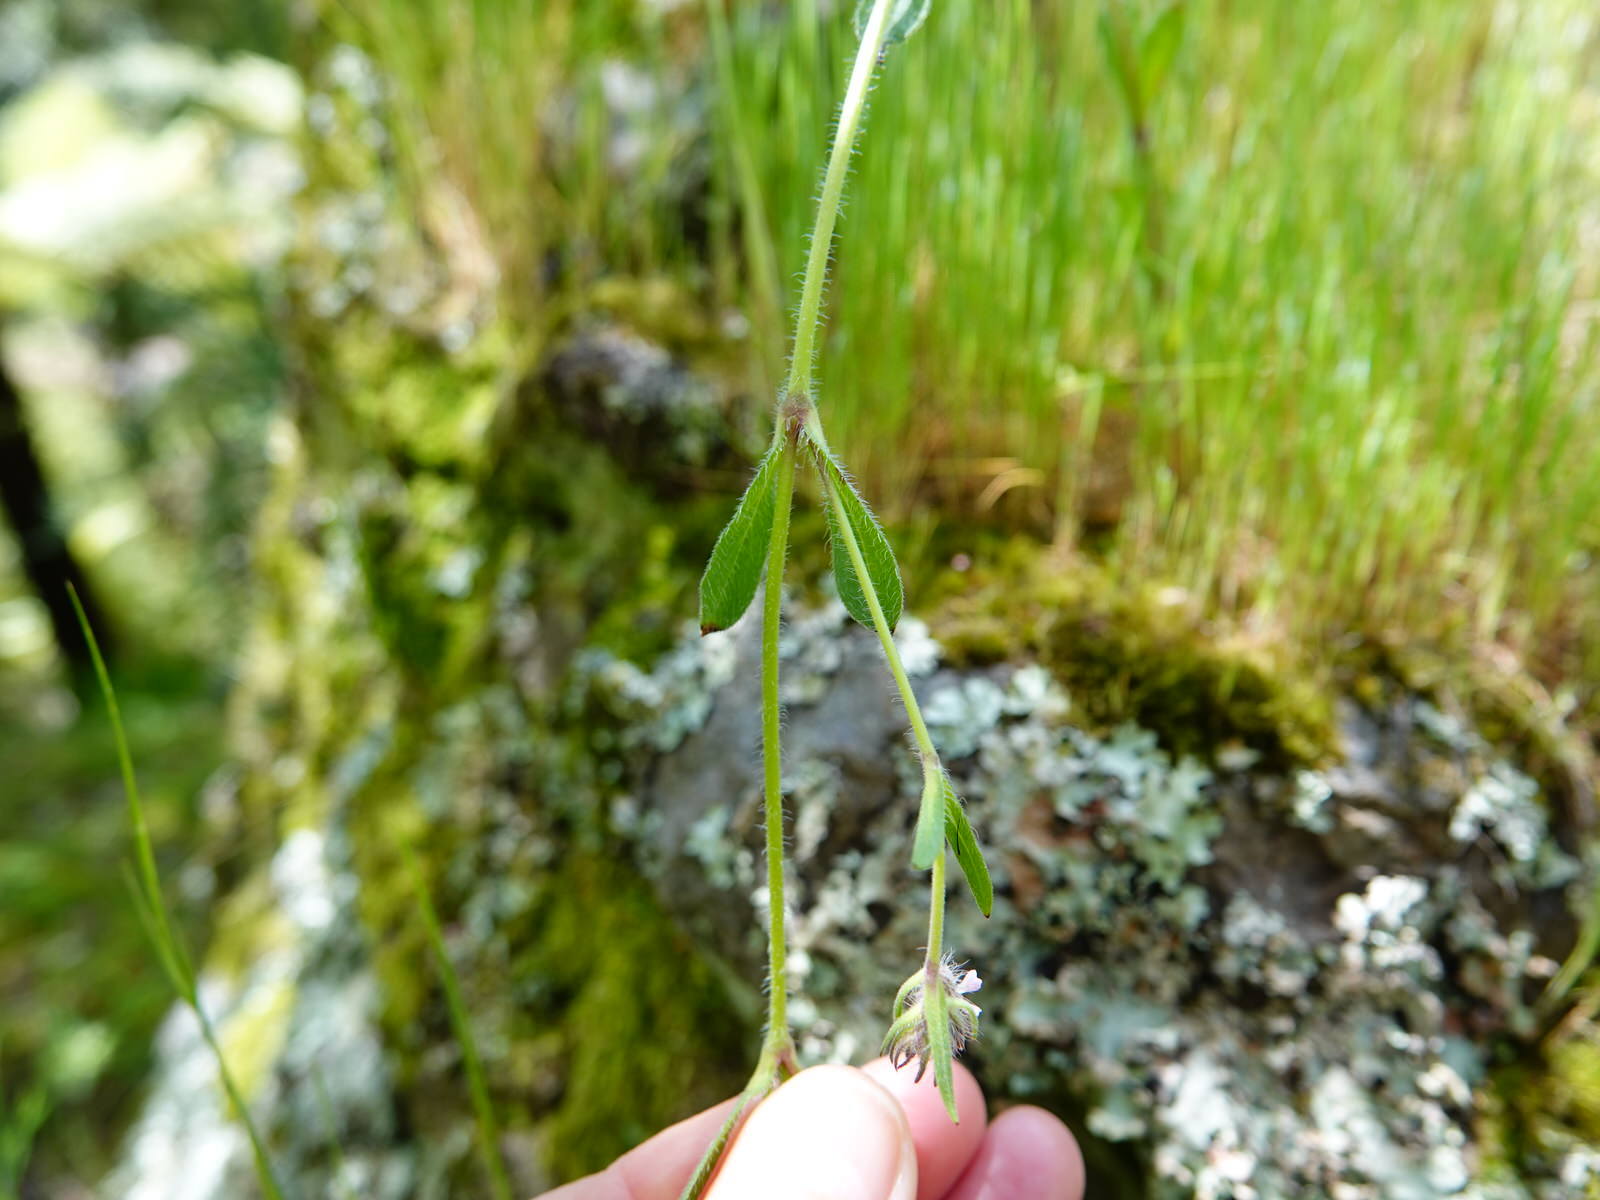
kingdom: Plantae
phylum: Tracheophyta
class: Magnoliopsida
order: Caryophyllales
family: Caryophyllaceae
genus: Silene
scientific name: Silene gallica
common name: Small-flowered catchfly
